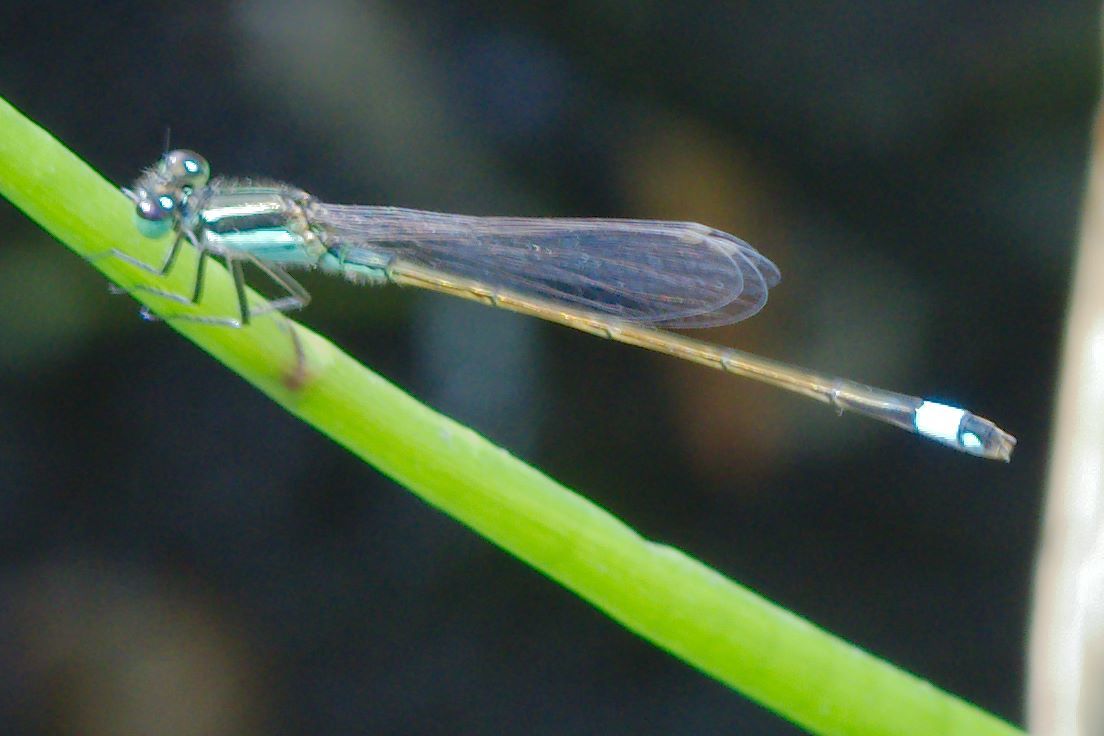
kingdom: Animalia
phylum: Arthropoda
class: Insecta
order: Odonata
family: Coenagrionidae
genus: Ischnura
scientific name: Ischnura ramburii
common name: Rambur's forktail
